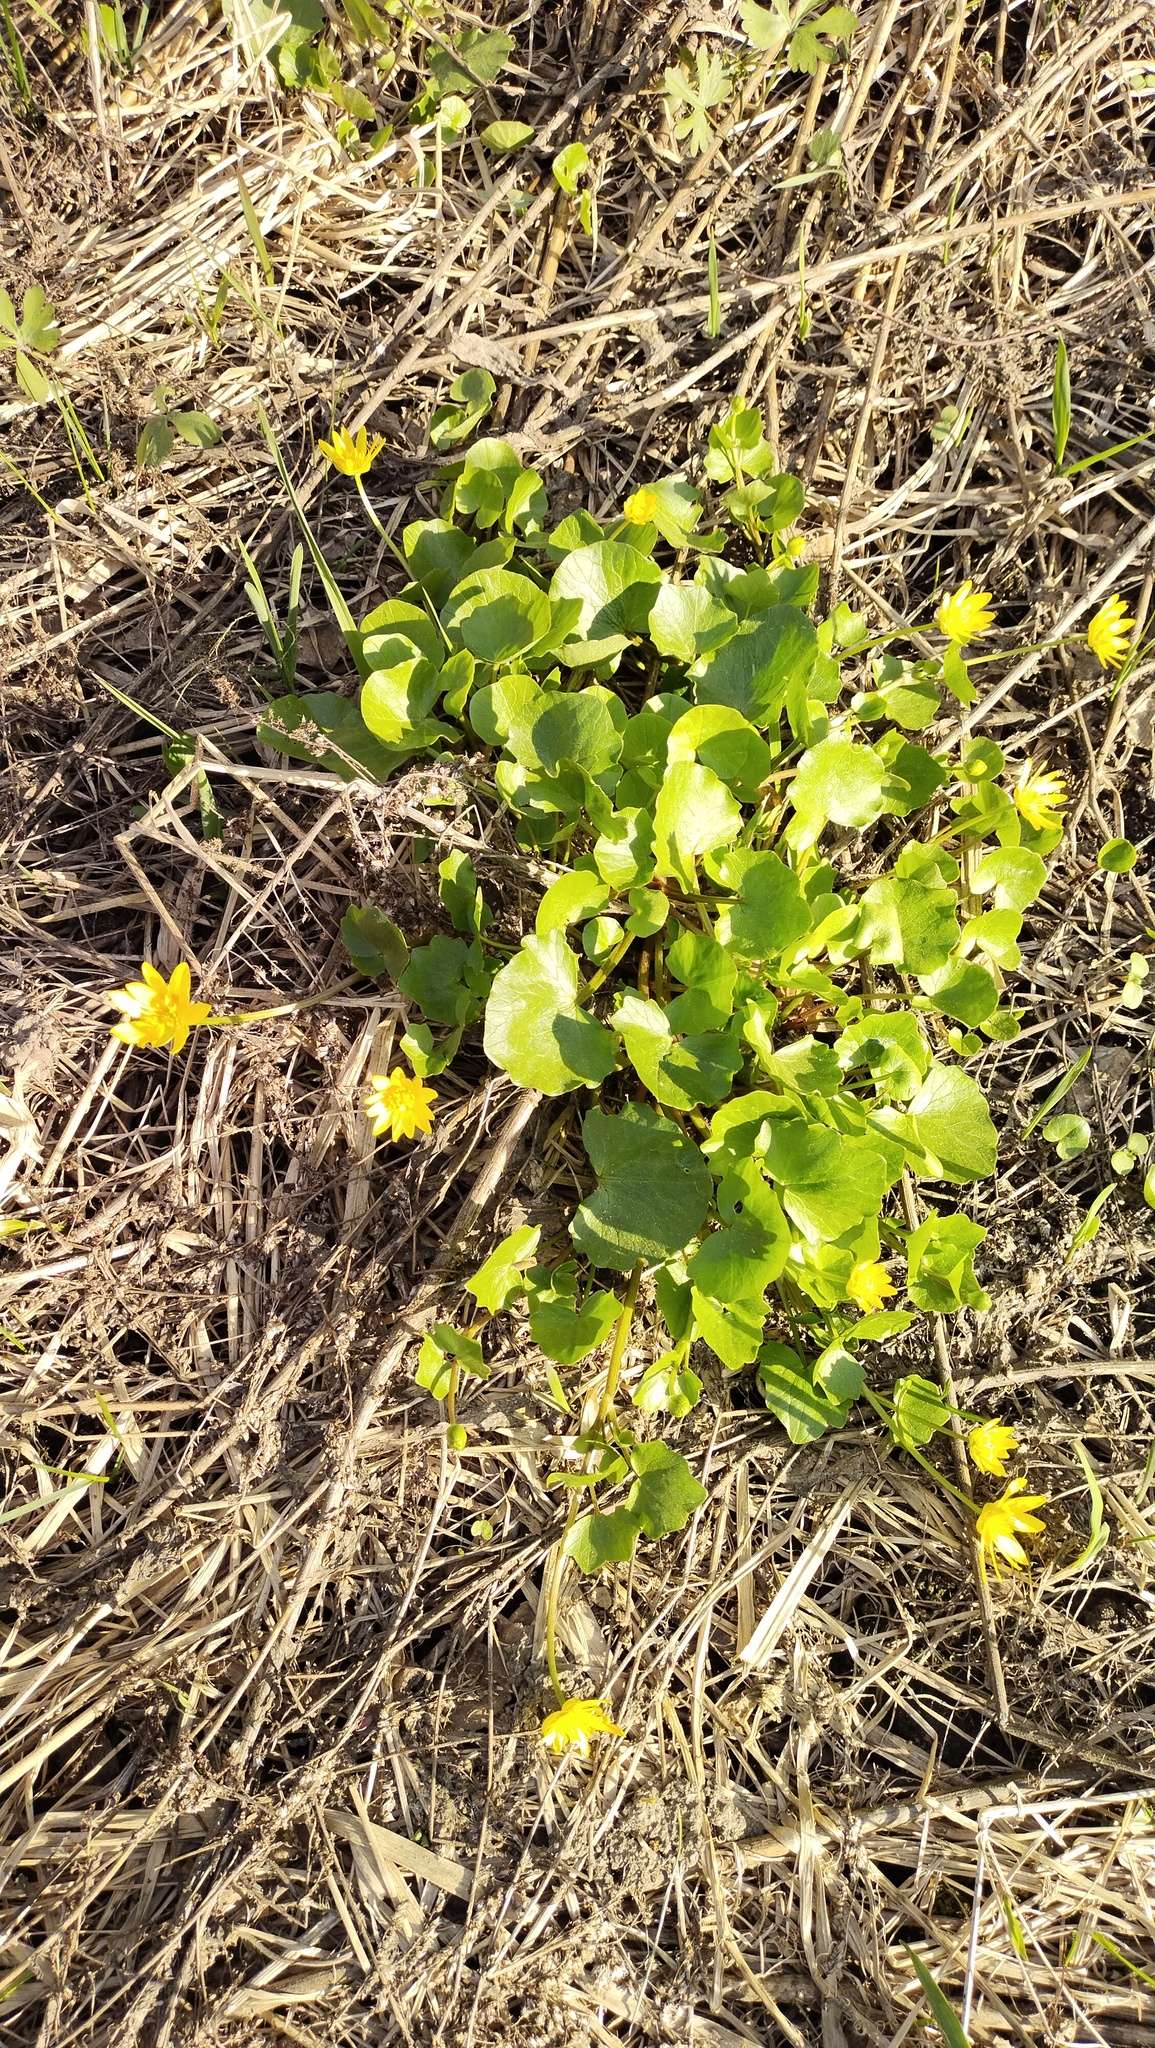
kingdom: Plantae
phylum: Tracheophyta
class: Magnoliopsida
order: Ranunculales
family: Ranunculaceae
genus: Ficaria
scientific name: Ficaria verna
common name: Lesser celandine
